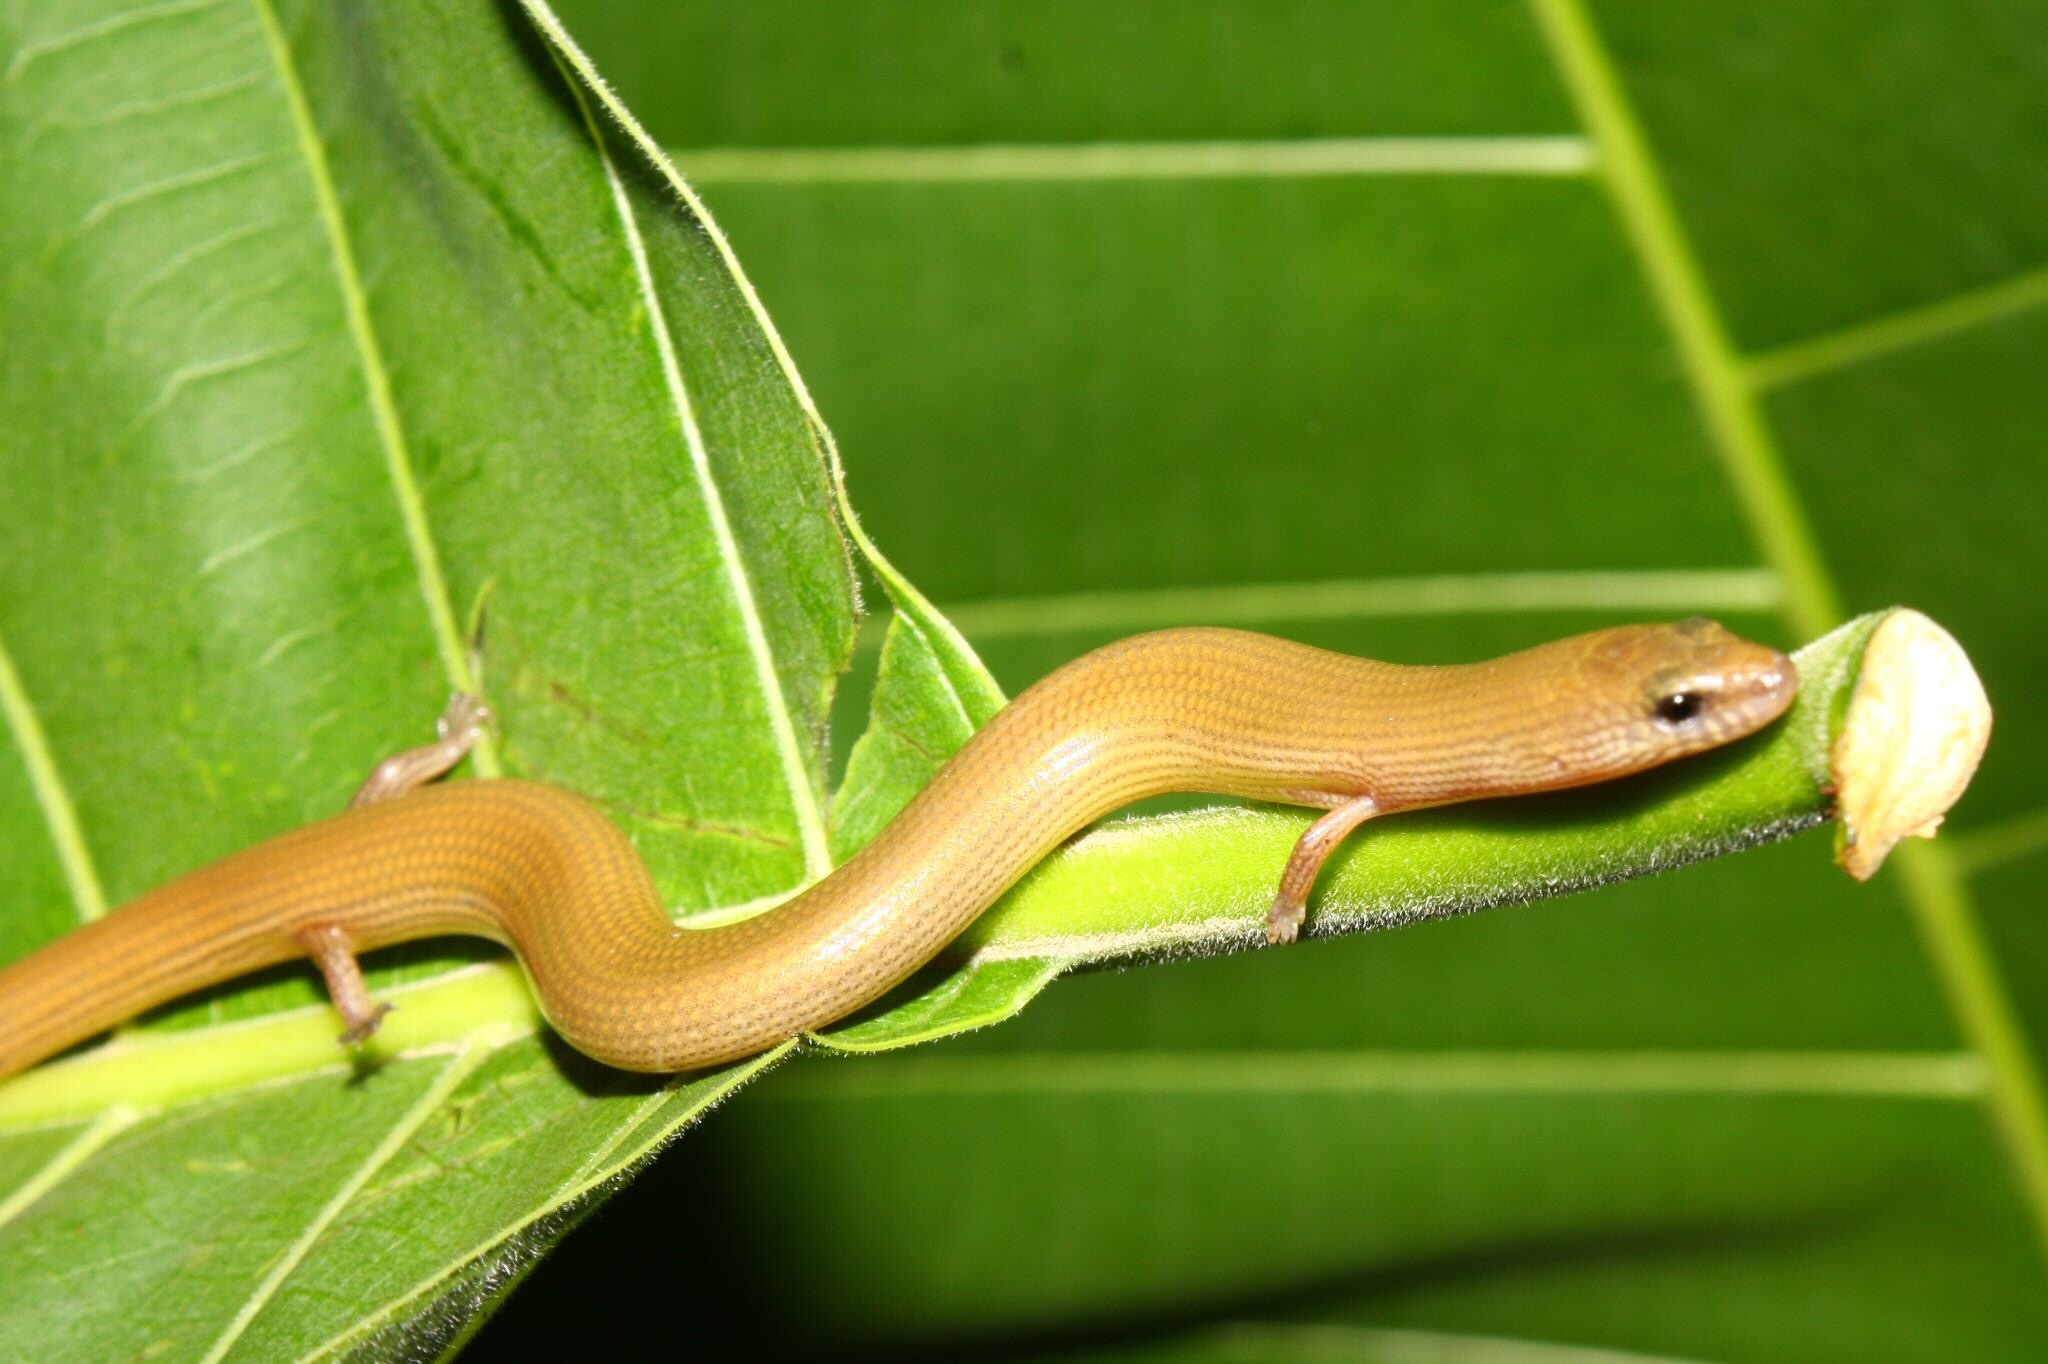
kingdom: Animalia
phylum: Chordata
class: Squamata
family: Scincidae
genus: Lygosoma
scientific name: Lygosoma siamense
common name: Siamese supple skink
